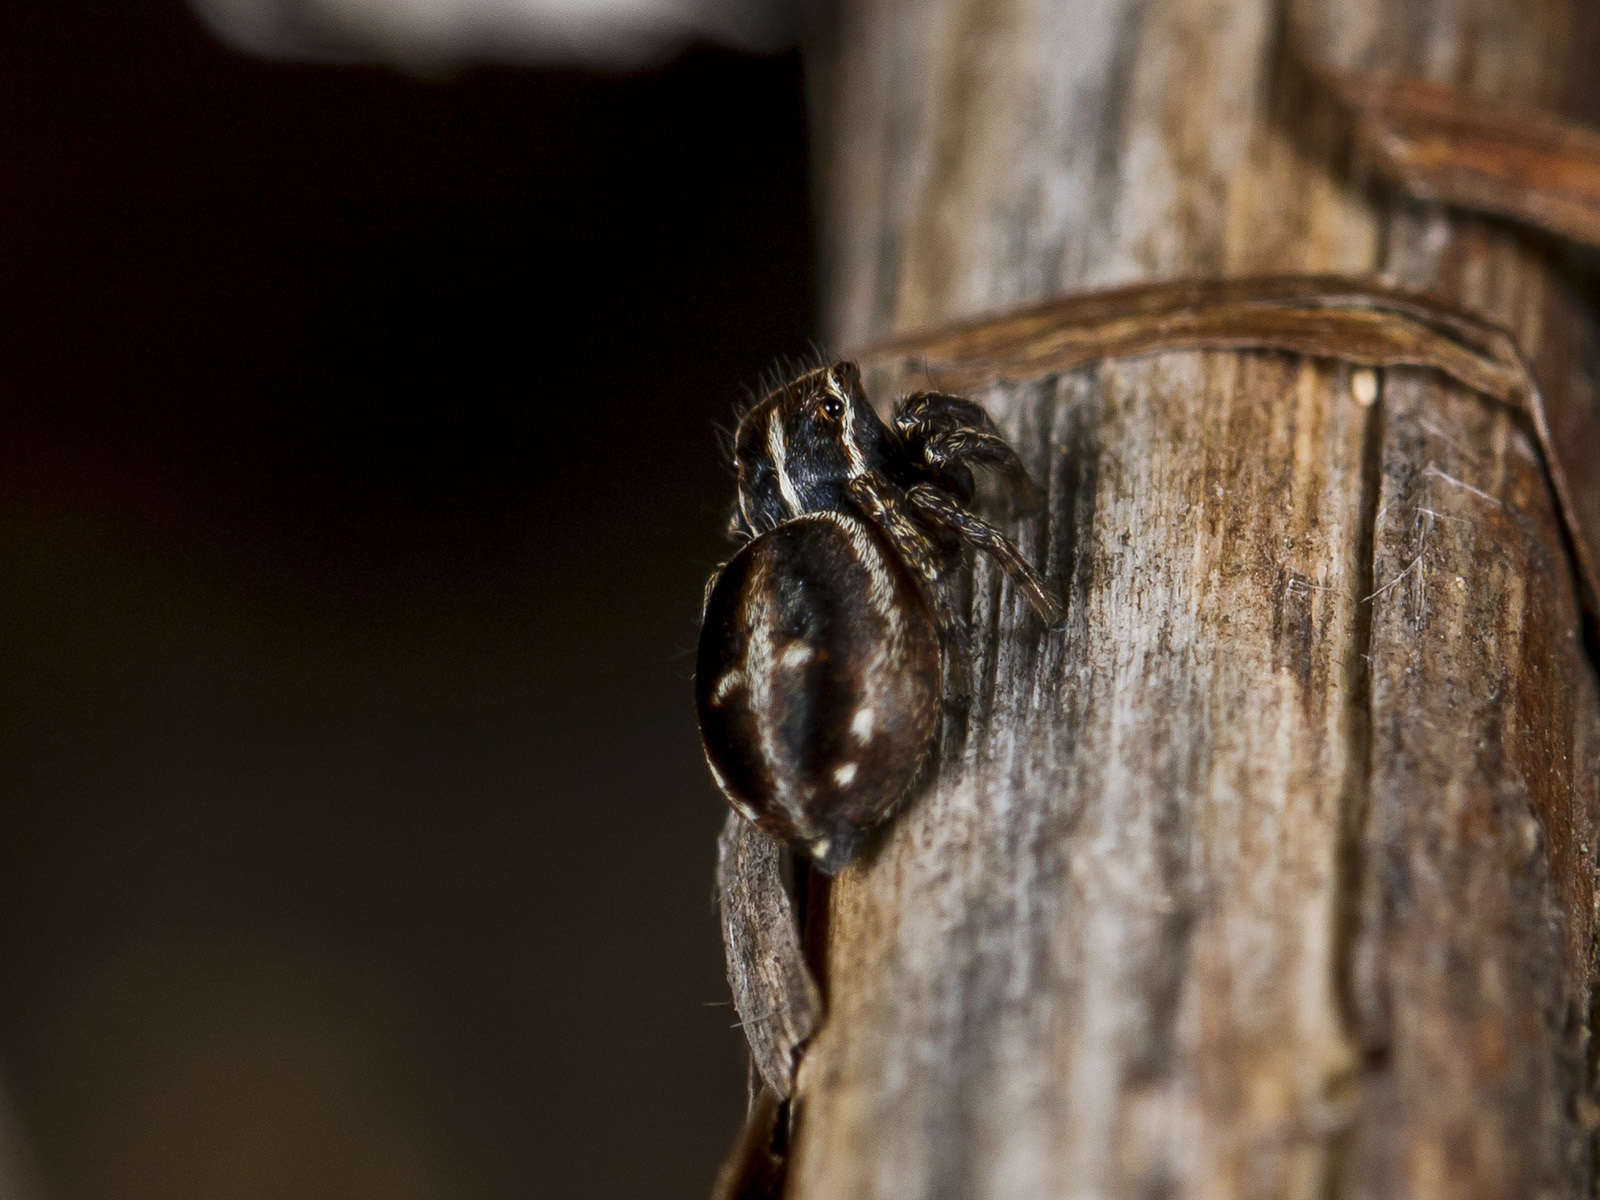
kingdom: Animalia
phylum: Arthropoda
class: Arachnida
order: Araneae
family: Salticidae
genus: Attulus
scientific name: Attulus monstrabilis
